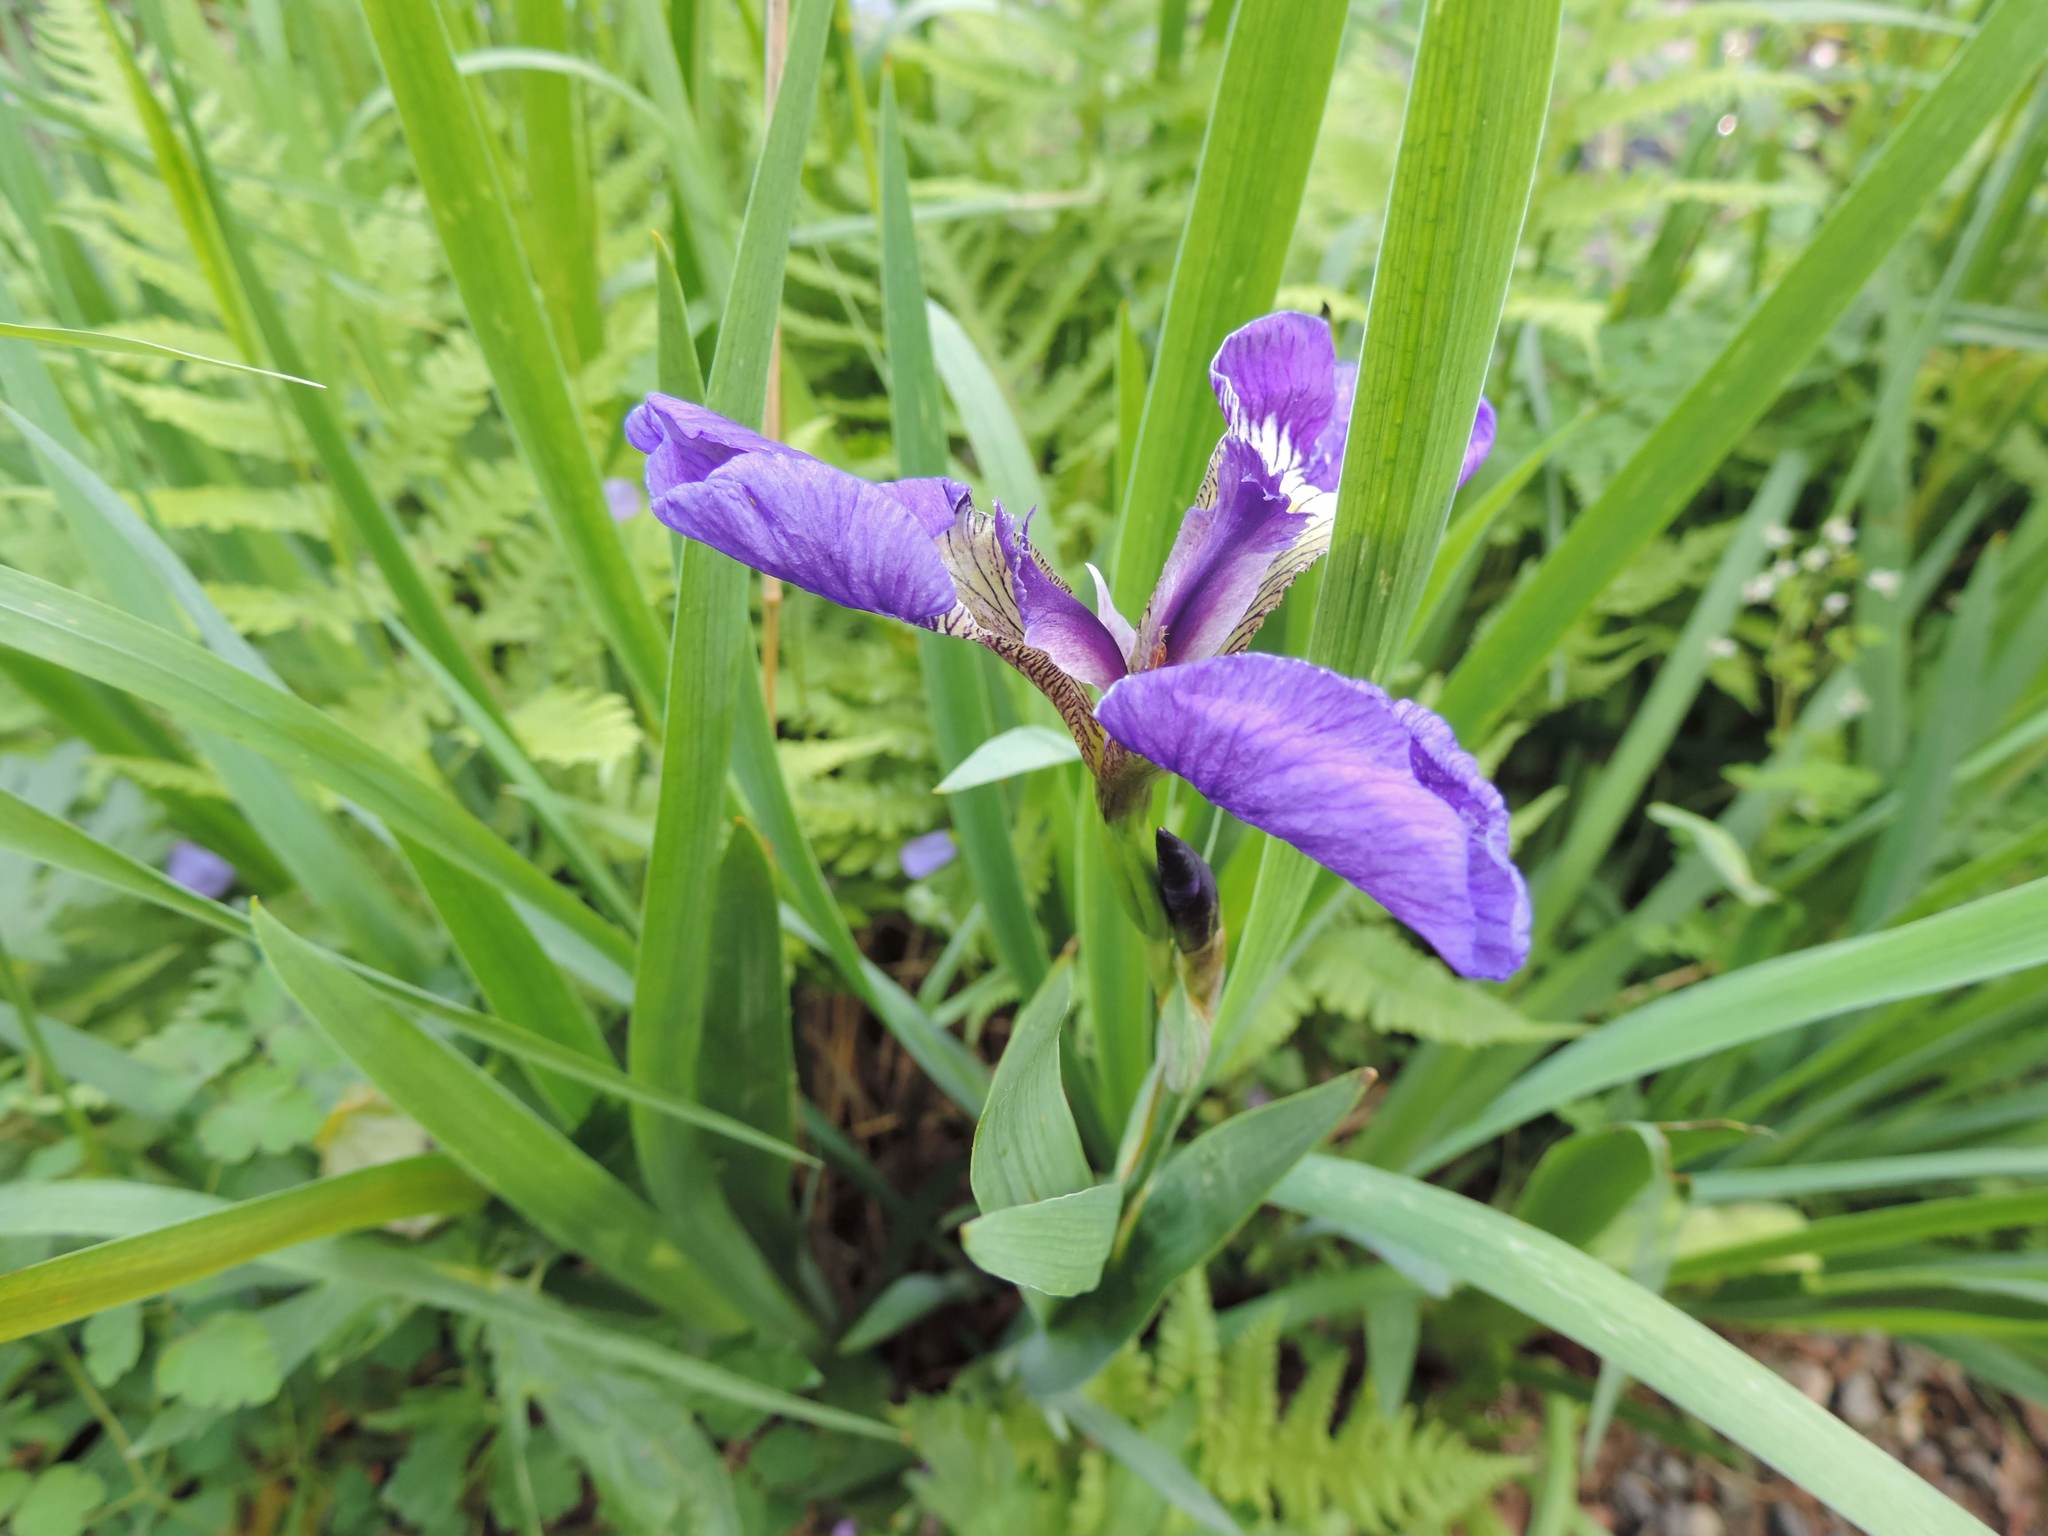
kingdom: Plantae
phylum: Tracheophyta
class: Liliopsida
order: Asparagales
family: Iridaceae
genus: Iris
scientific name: Iris setosa
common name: Arctic blue flag
